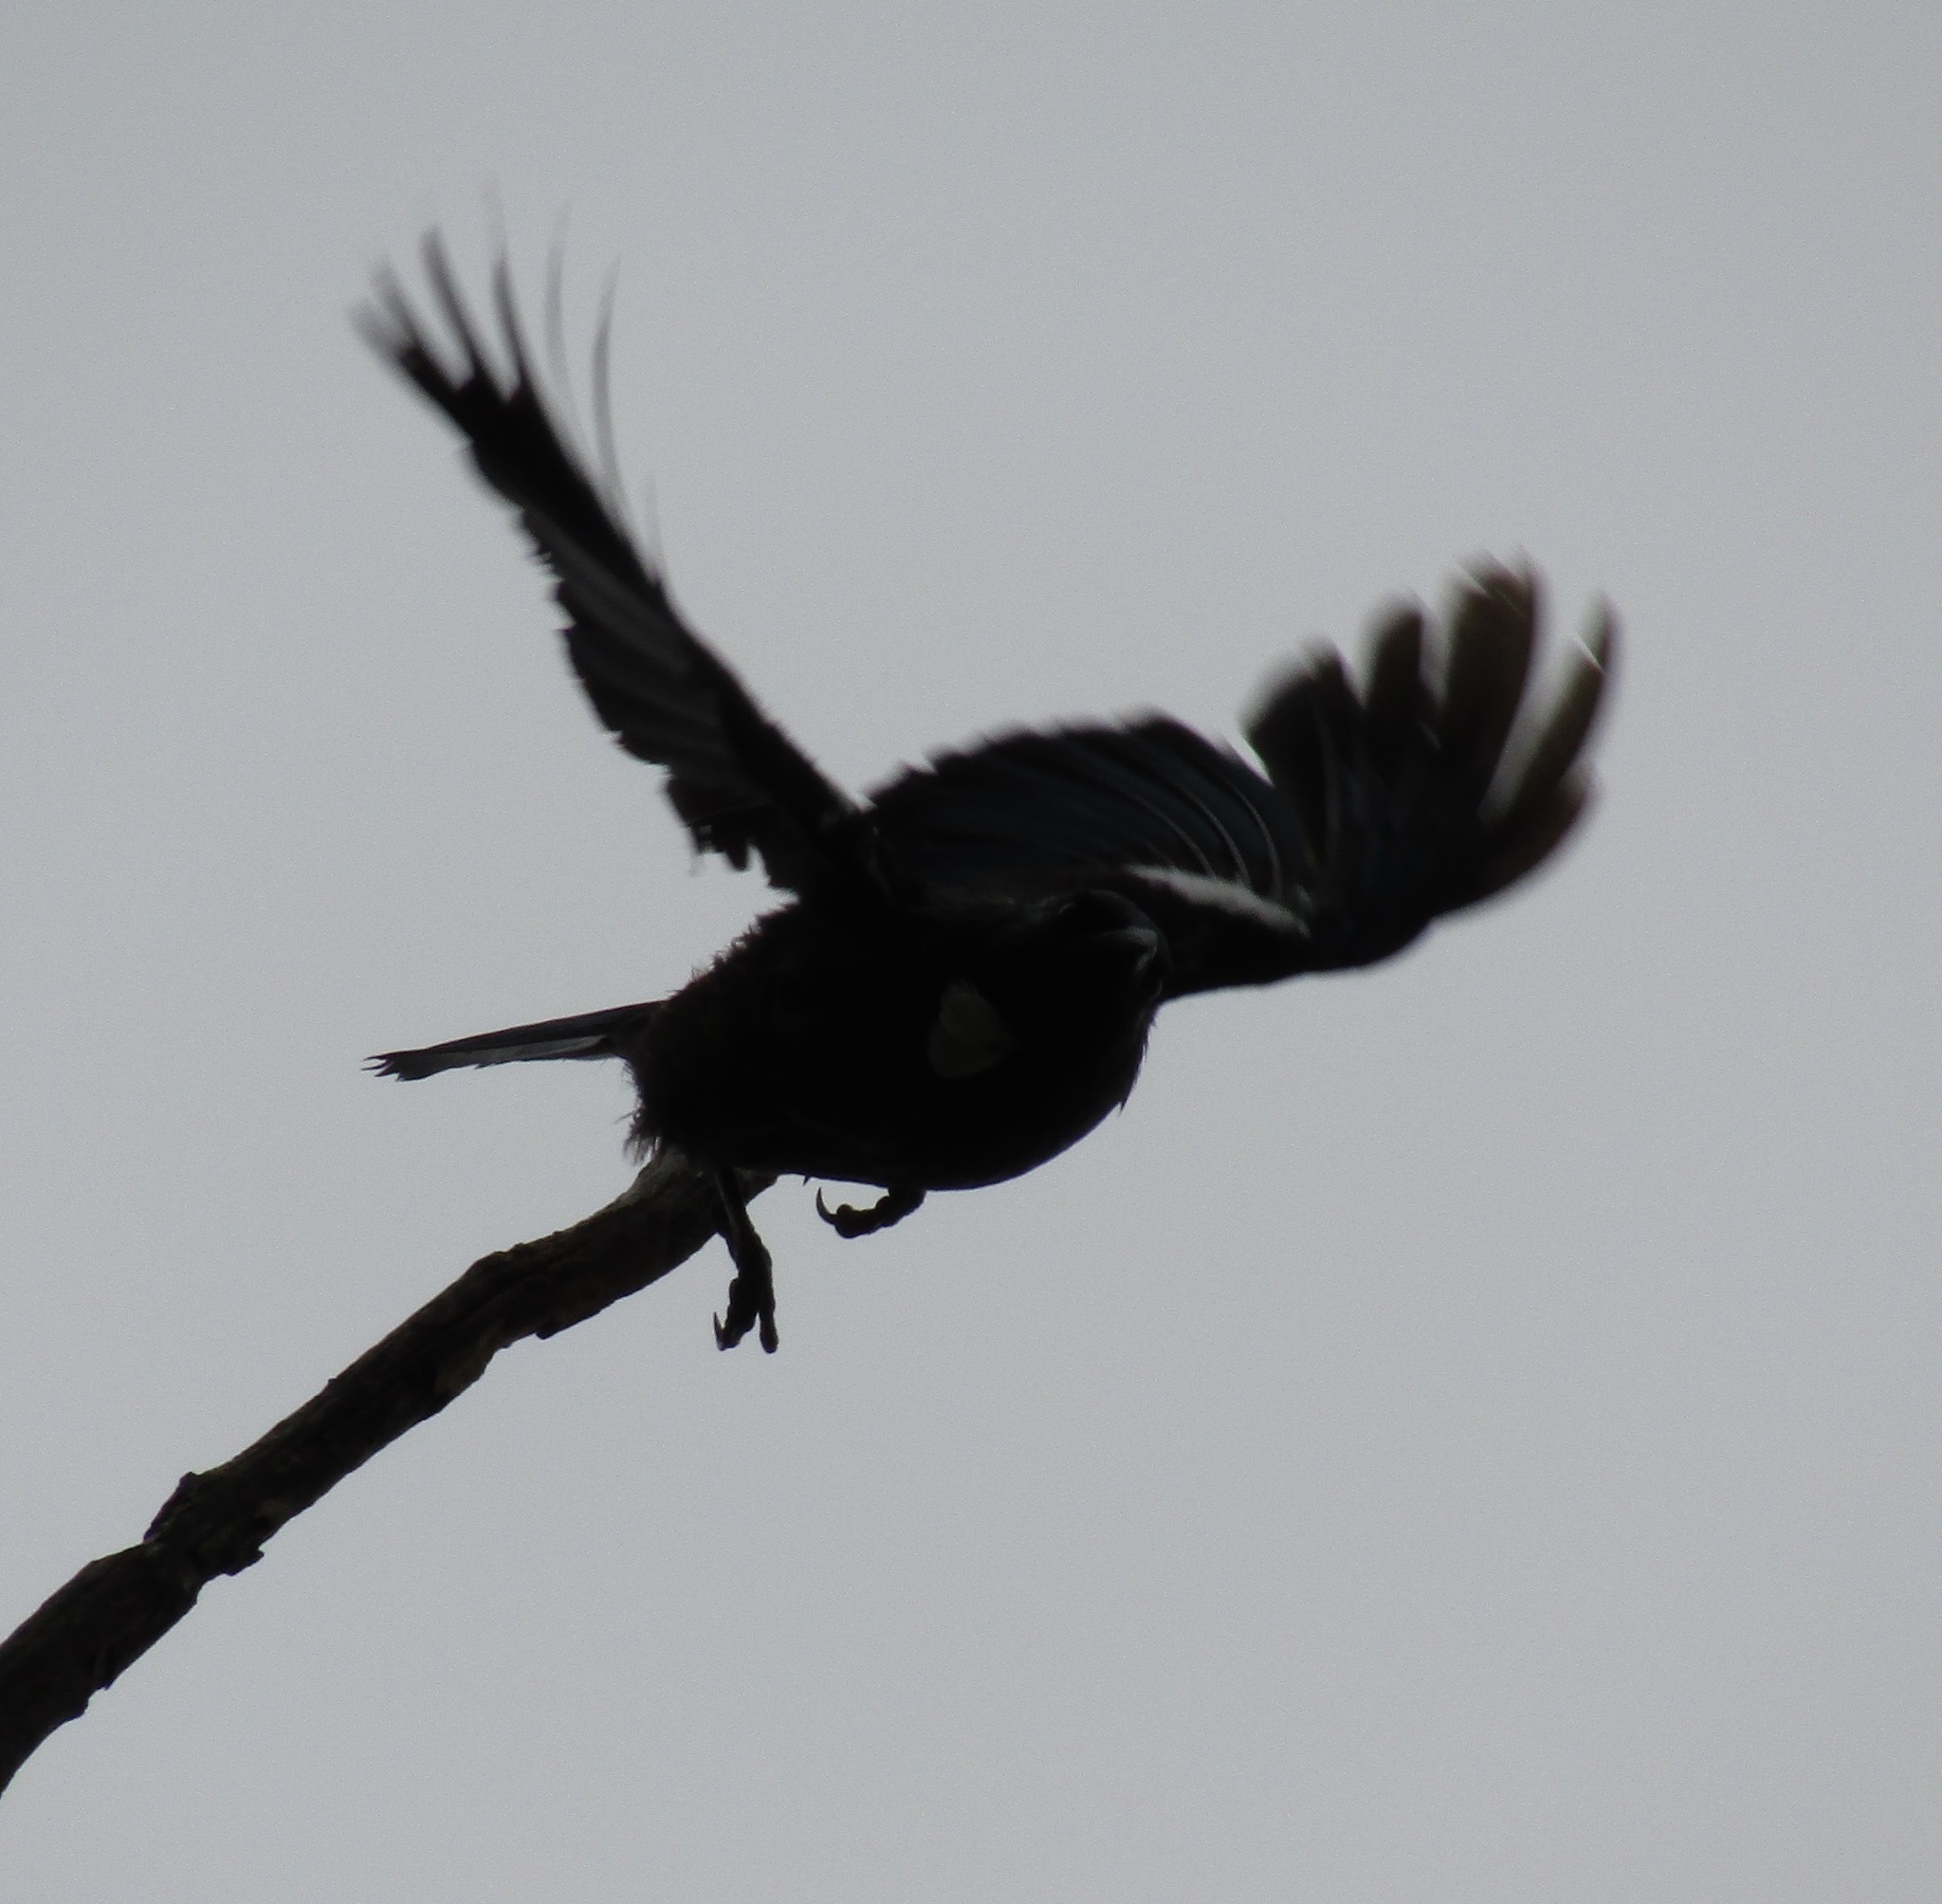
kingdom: Animalia
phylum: Chordata
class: Aves
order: Passeriformes
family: Meliphagidae
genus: Prosthemadera
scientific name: Prosthemadera novaeseelandiae
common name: Tui
